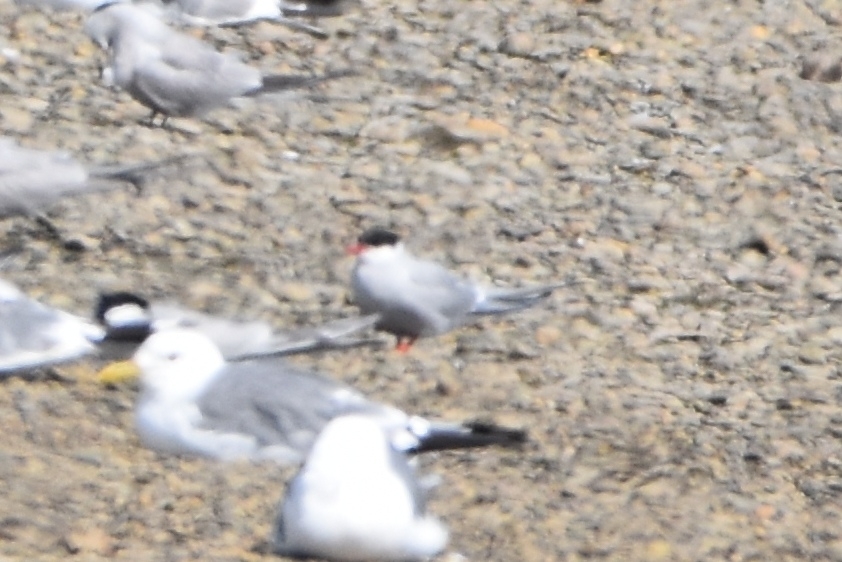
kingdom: Animalia
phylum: Chordata
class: Aves
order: Charadriiformes
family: Laridae
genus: Sterna
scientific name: Sterna paradisaea
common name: Arctic tern
